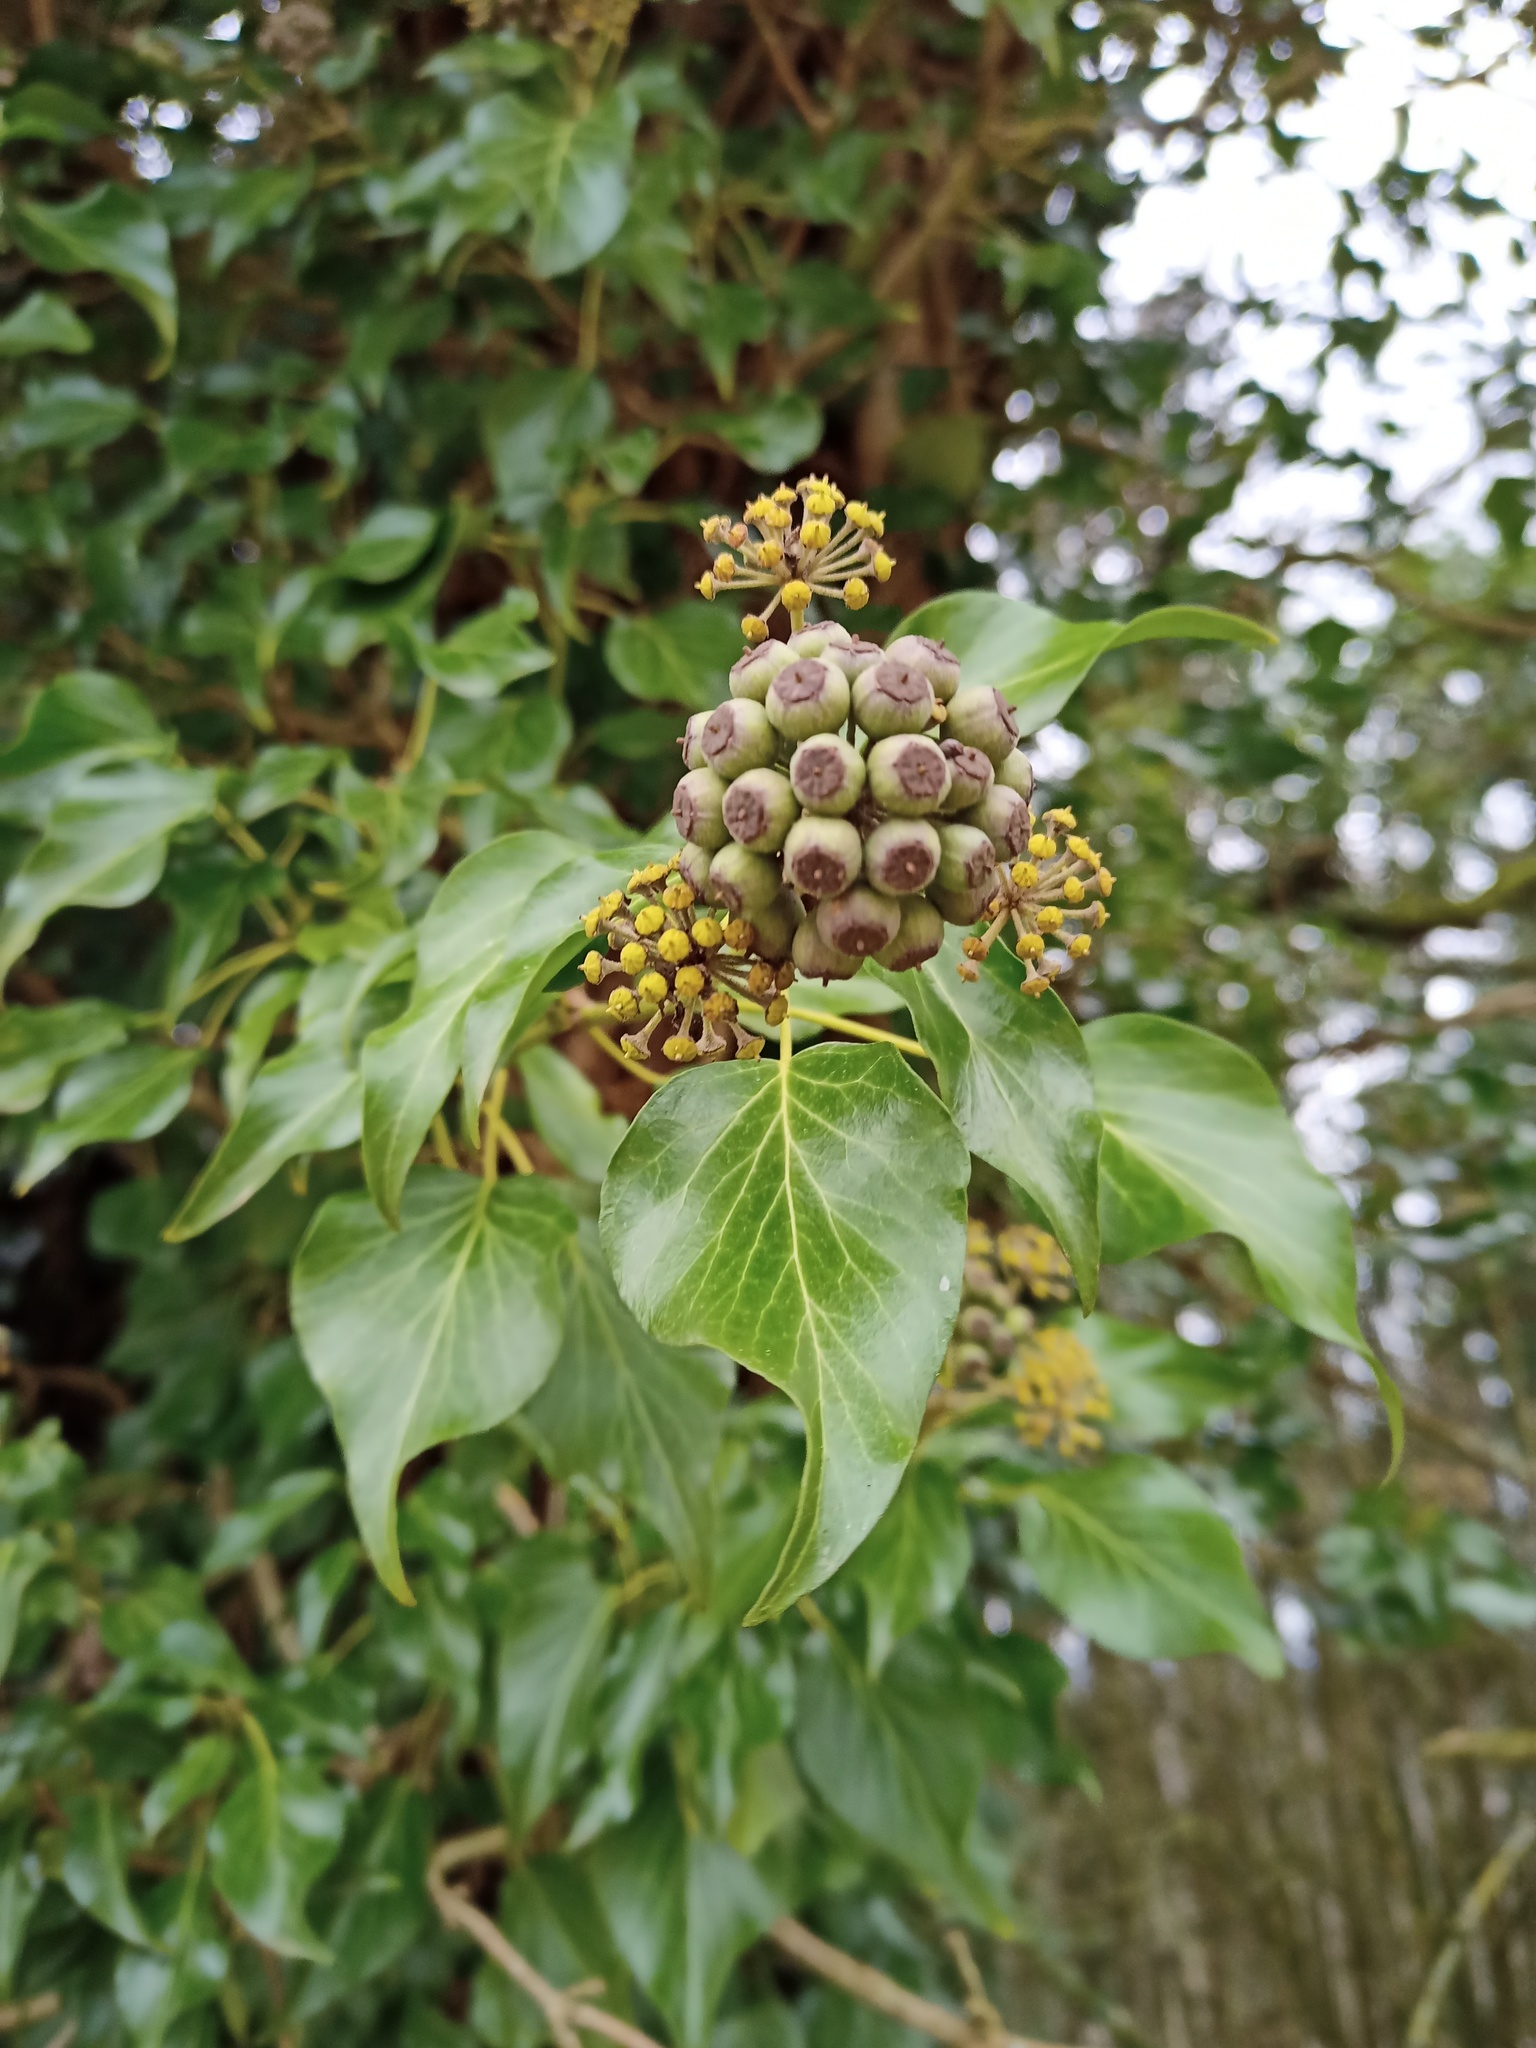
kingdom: Plantae
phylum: Tracheophyta
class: Magnoliopsida
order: Apiales
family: Araliaceae
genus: Hedera
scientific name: Hedera helix
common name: Ivy
